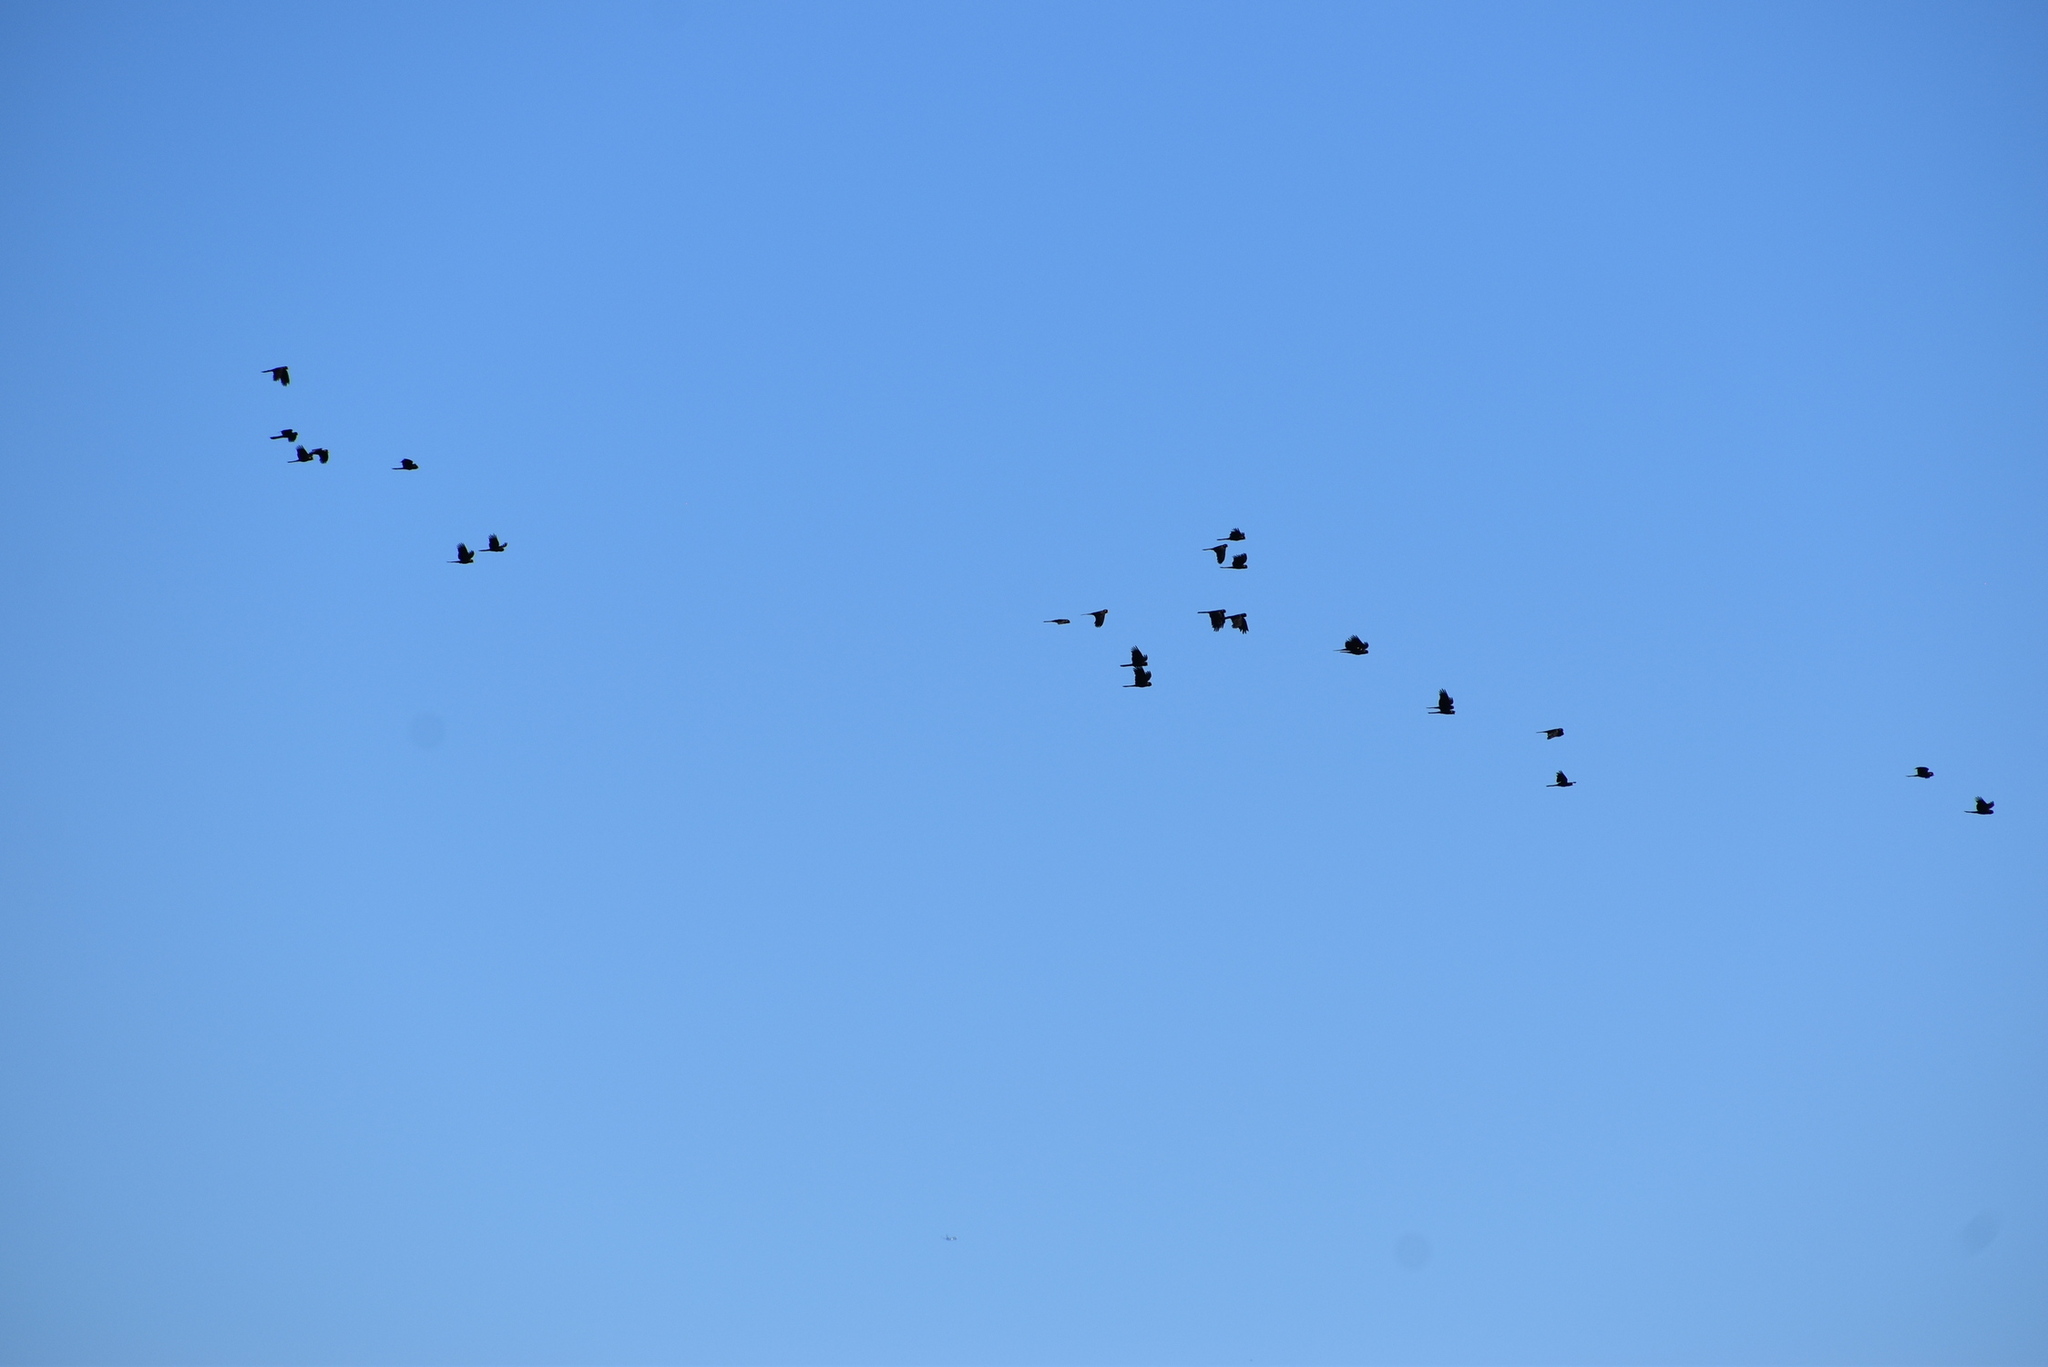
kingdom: Animalia
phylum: Chordata
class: Aves
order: Psittaciformes
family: Cacatuidae
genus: Zanda
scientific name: Zanda funerea
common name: Yellow-tailed black-cockatoo
